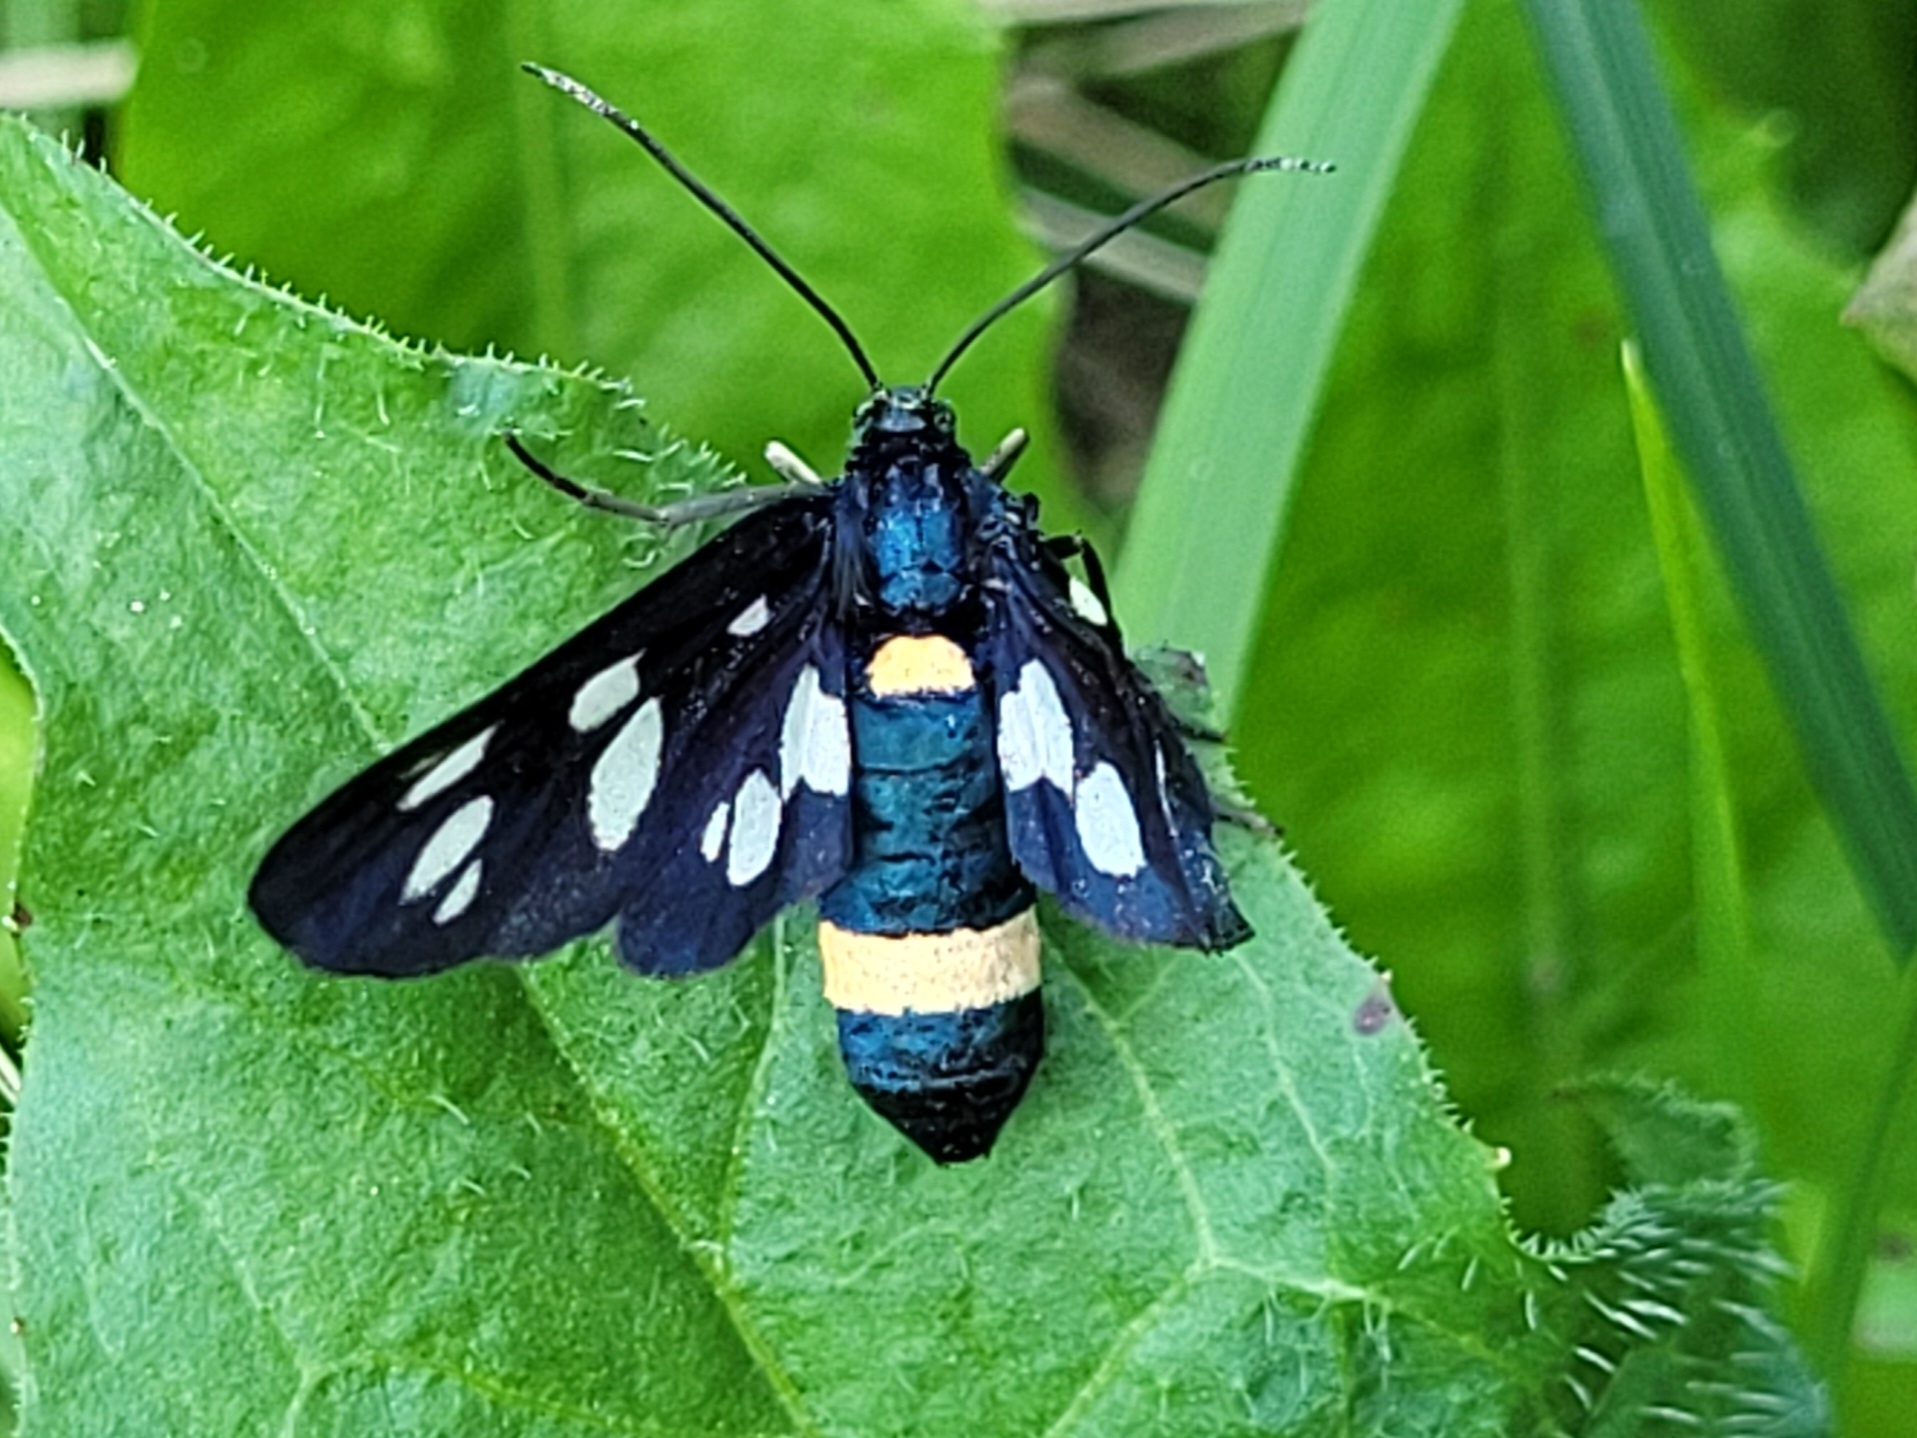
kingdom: Animalia
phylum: Arthropoda
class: Insecta
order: Lepidoptera
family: Erebidae
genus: Amata
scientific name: Amata phegea
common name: Nine-spotted
